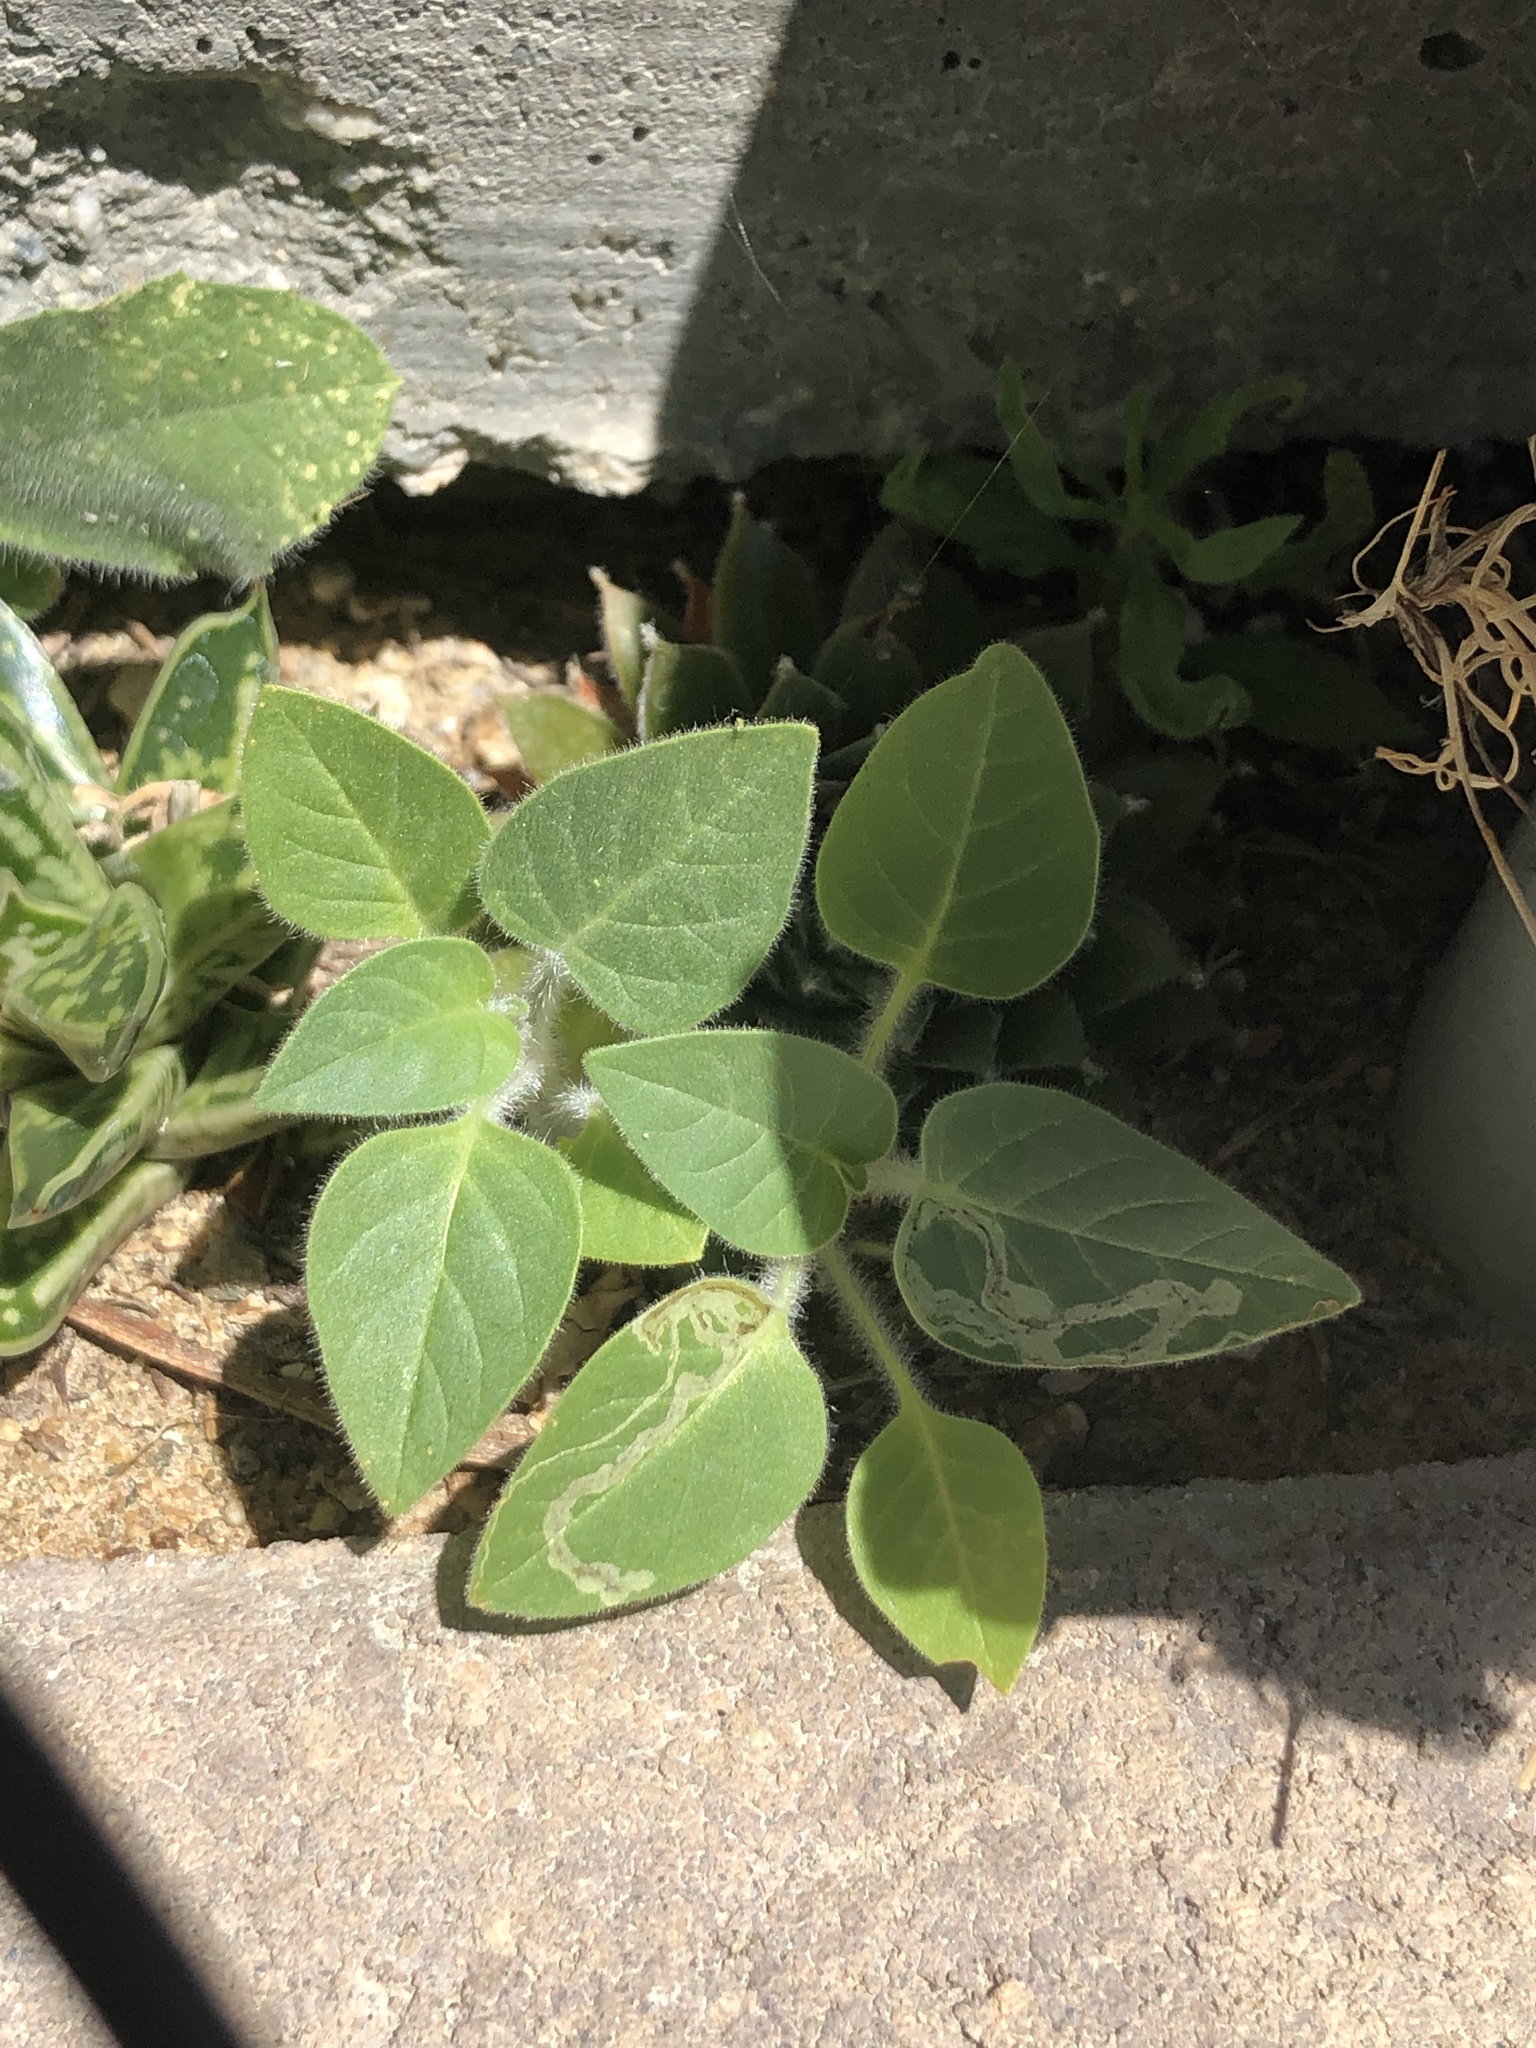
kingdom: Plantae
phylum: Tracheophyta
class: Magnoliopsida
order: Solanales
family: Solanaceae
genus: Datura
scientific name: Datura wrightii
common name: Sacred thorn-apple
